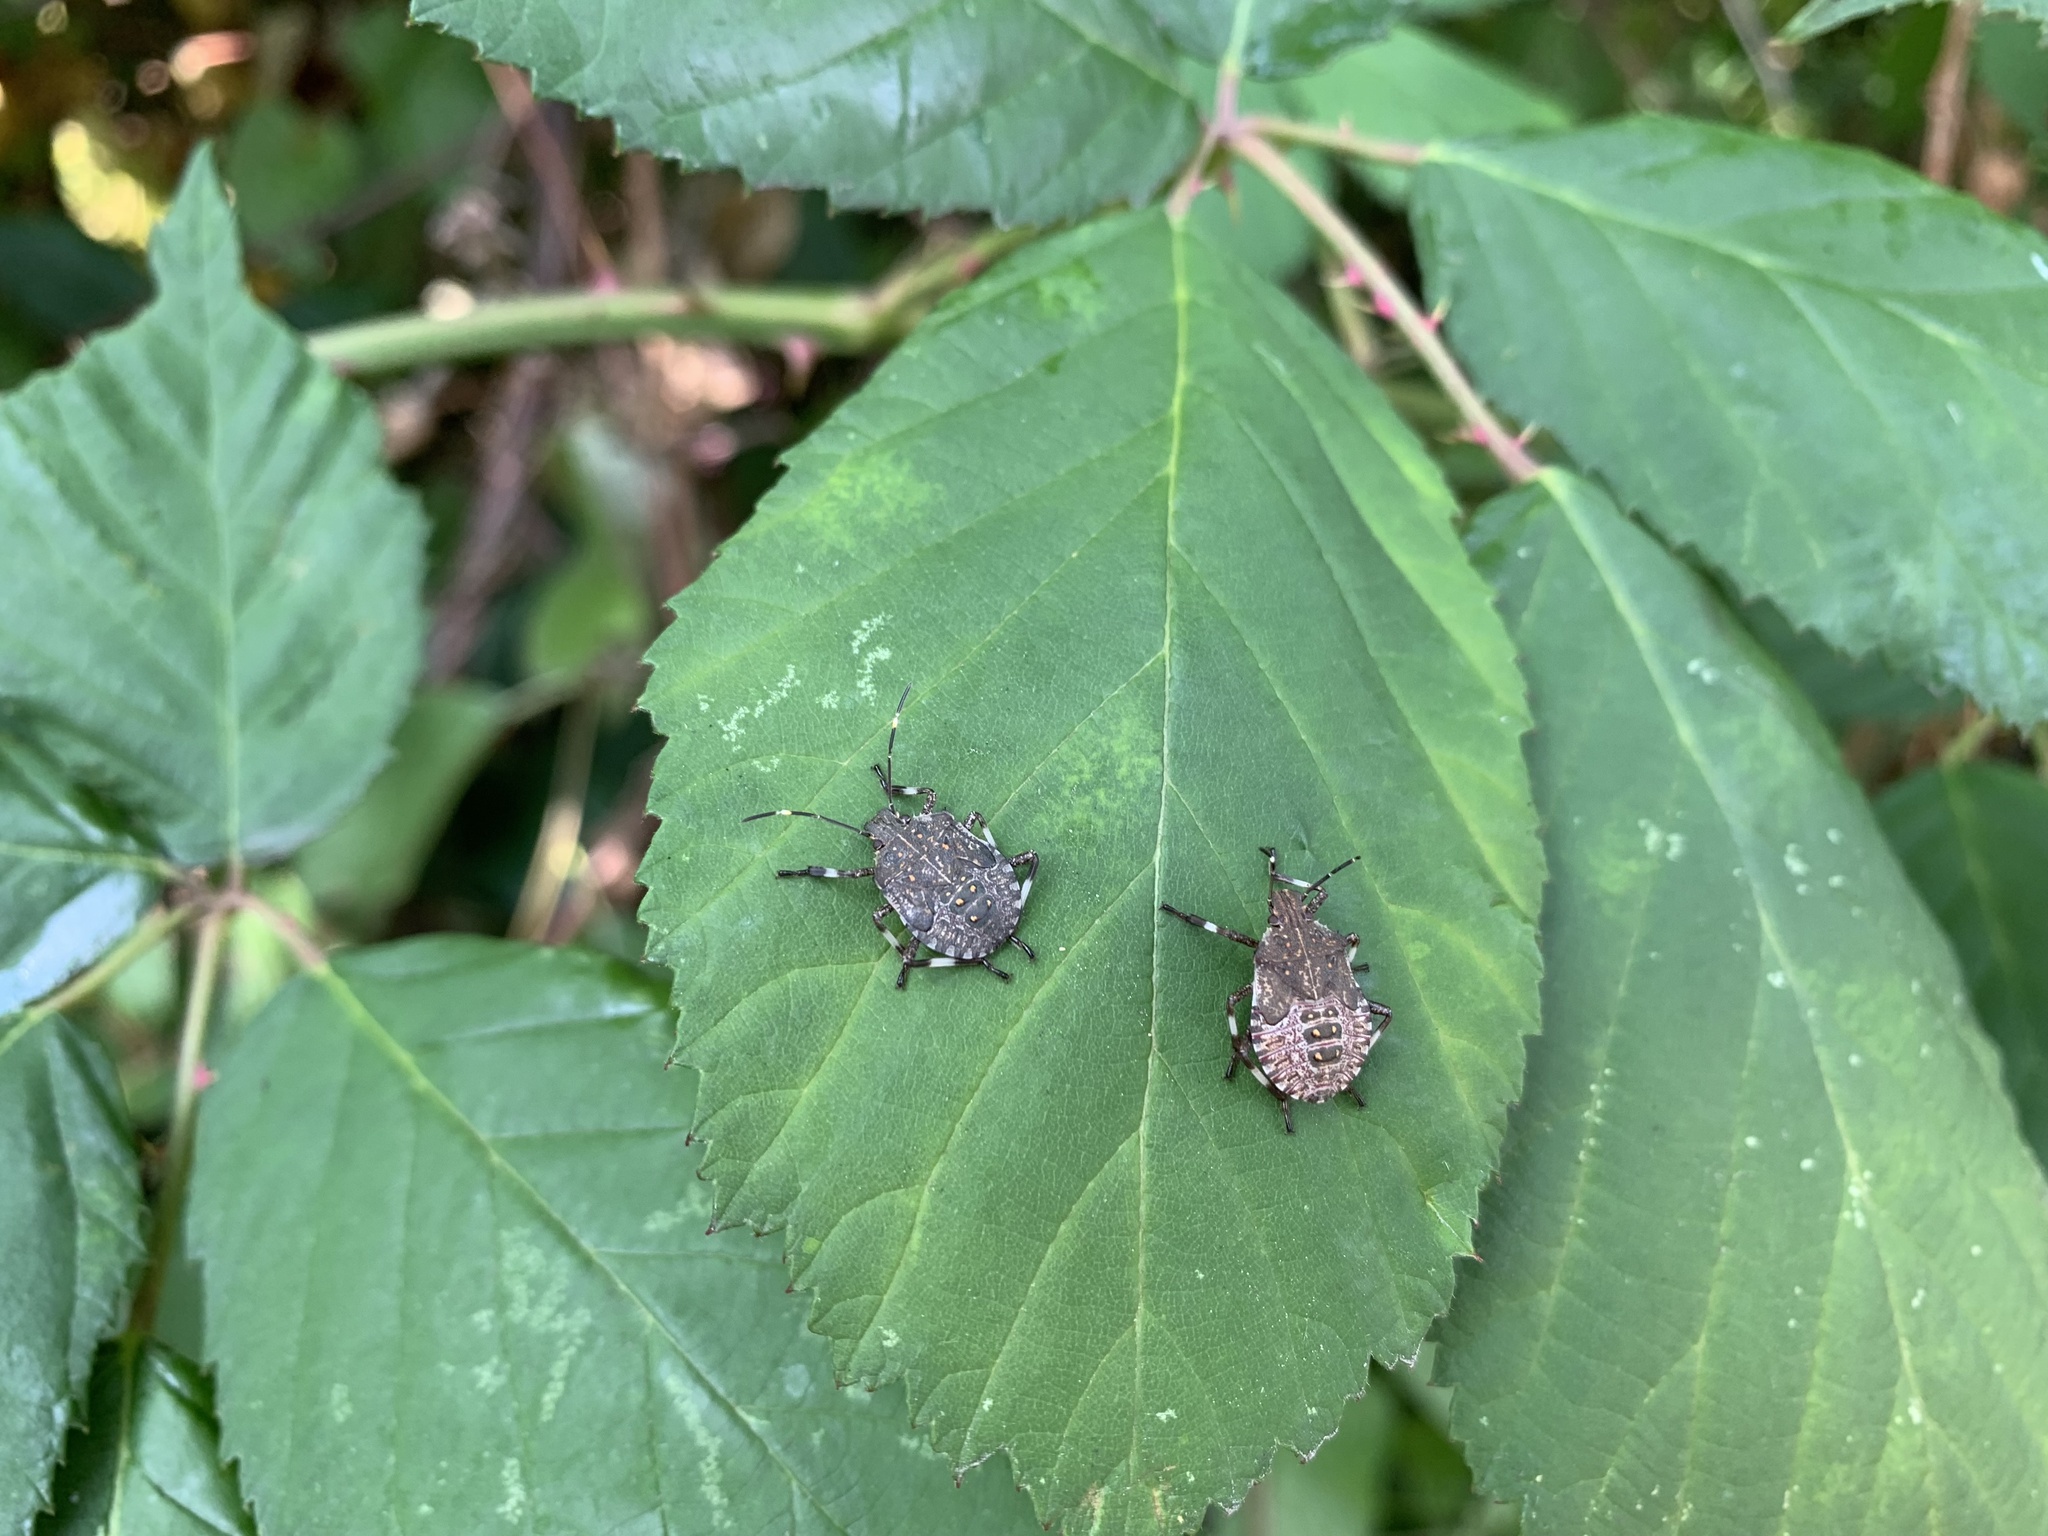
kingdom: Animalia
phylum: Arthropoda
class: Insecta
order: Hemiptera
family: Pentatomidae
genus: Halyomorpha
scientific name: Halyomorpha halys
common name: Brown marmorated stink bug
